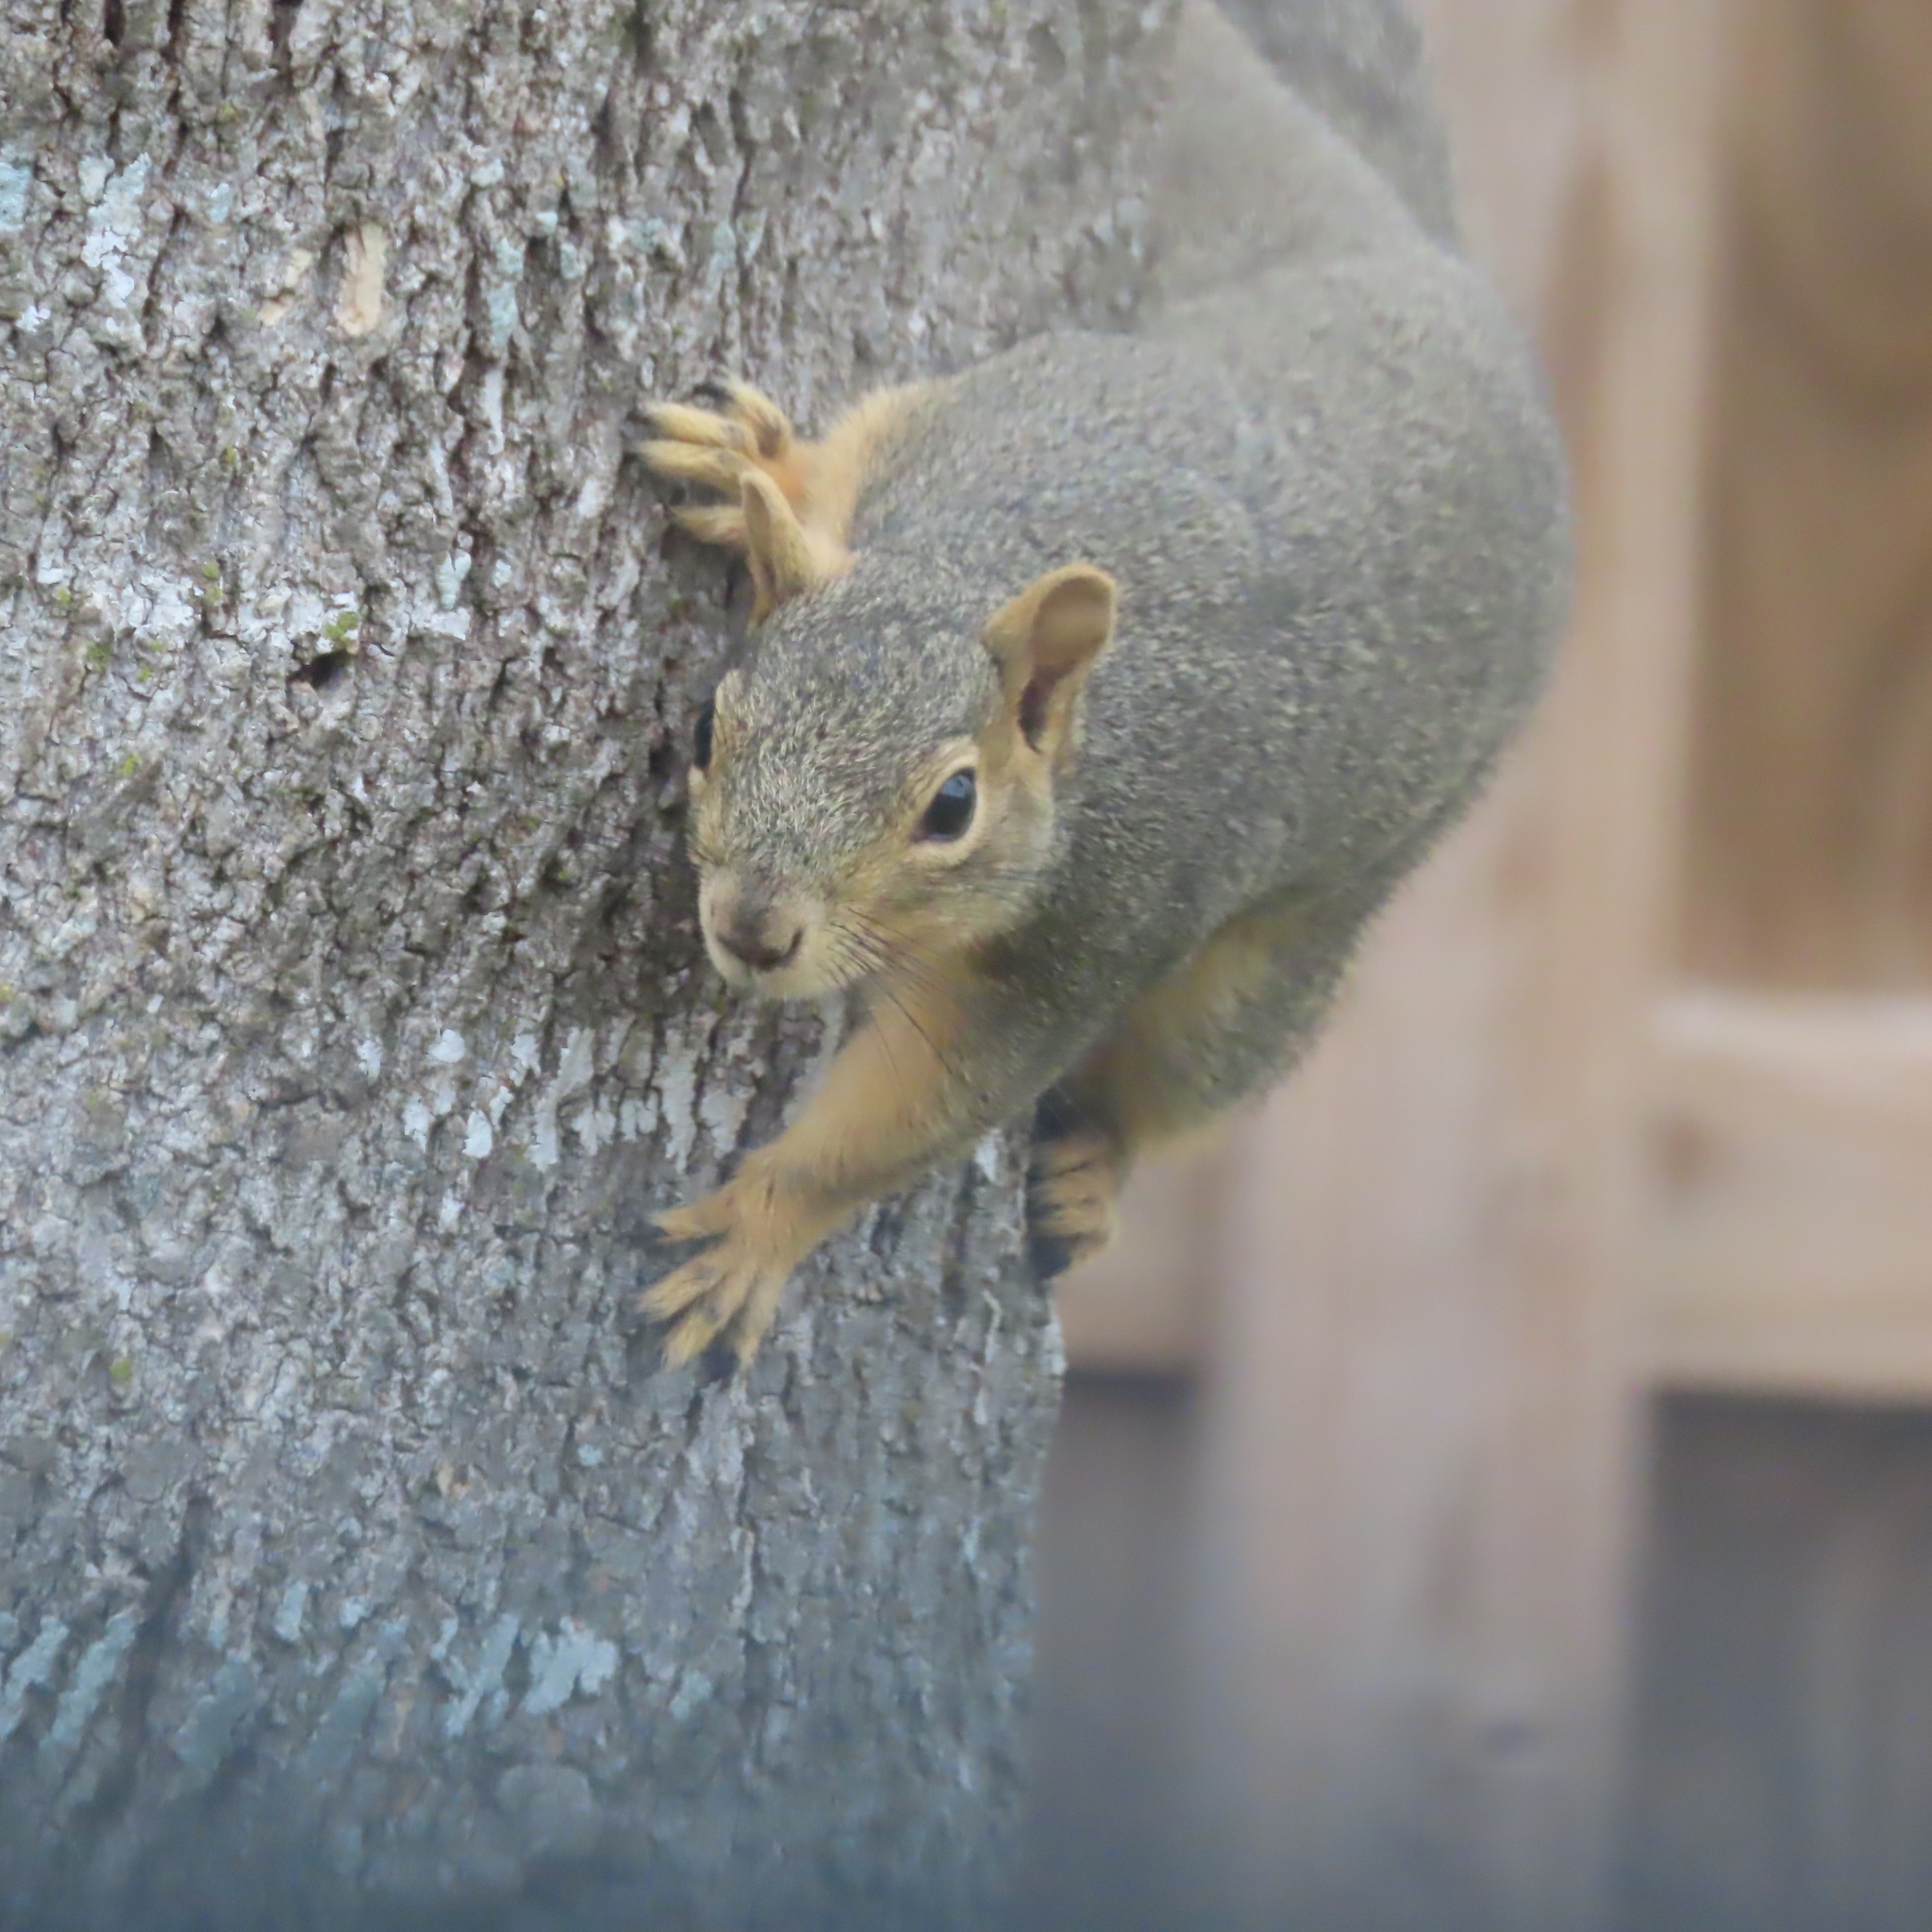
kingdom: Animalia
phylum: Chordata
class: Mammalia
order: Rodentia
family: Sciuridae
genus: Sciurus
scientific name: Sciurus niger
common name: Fox squirrel
